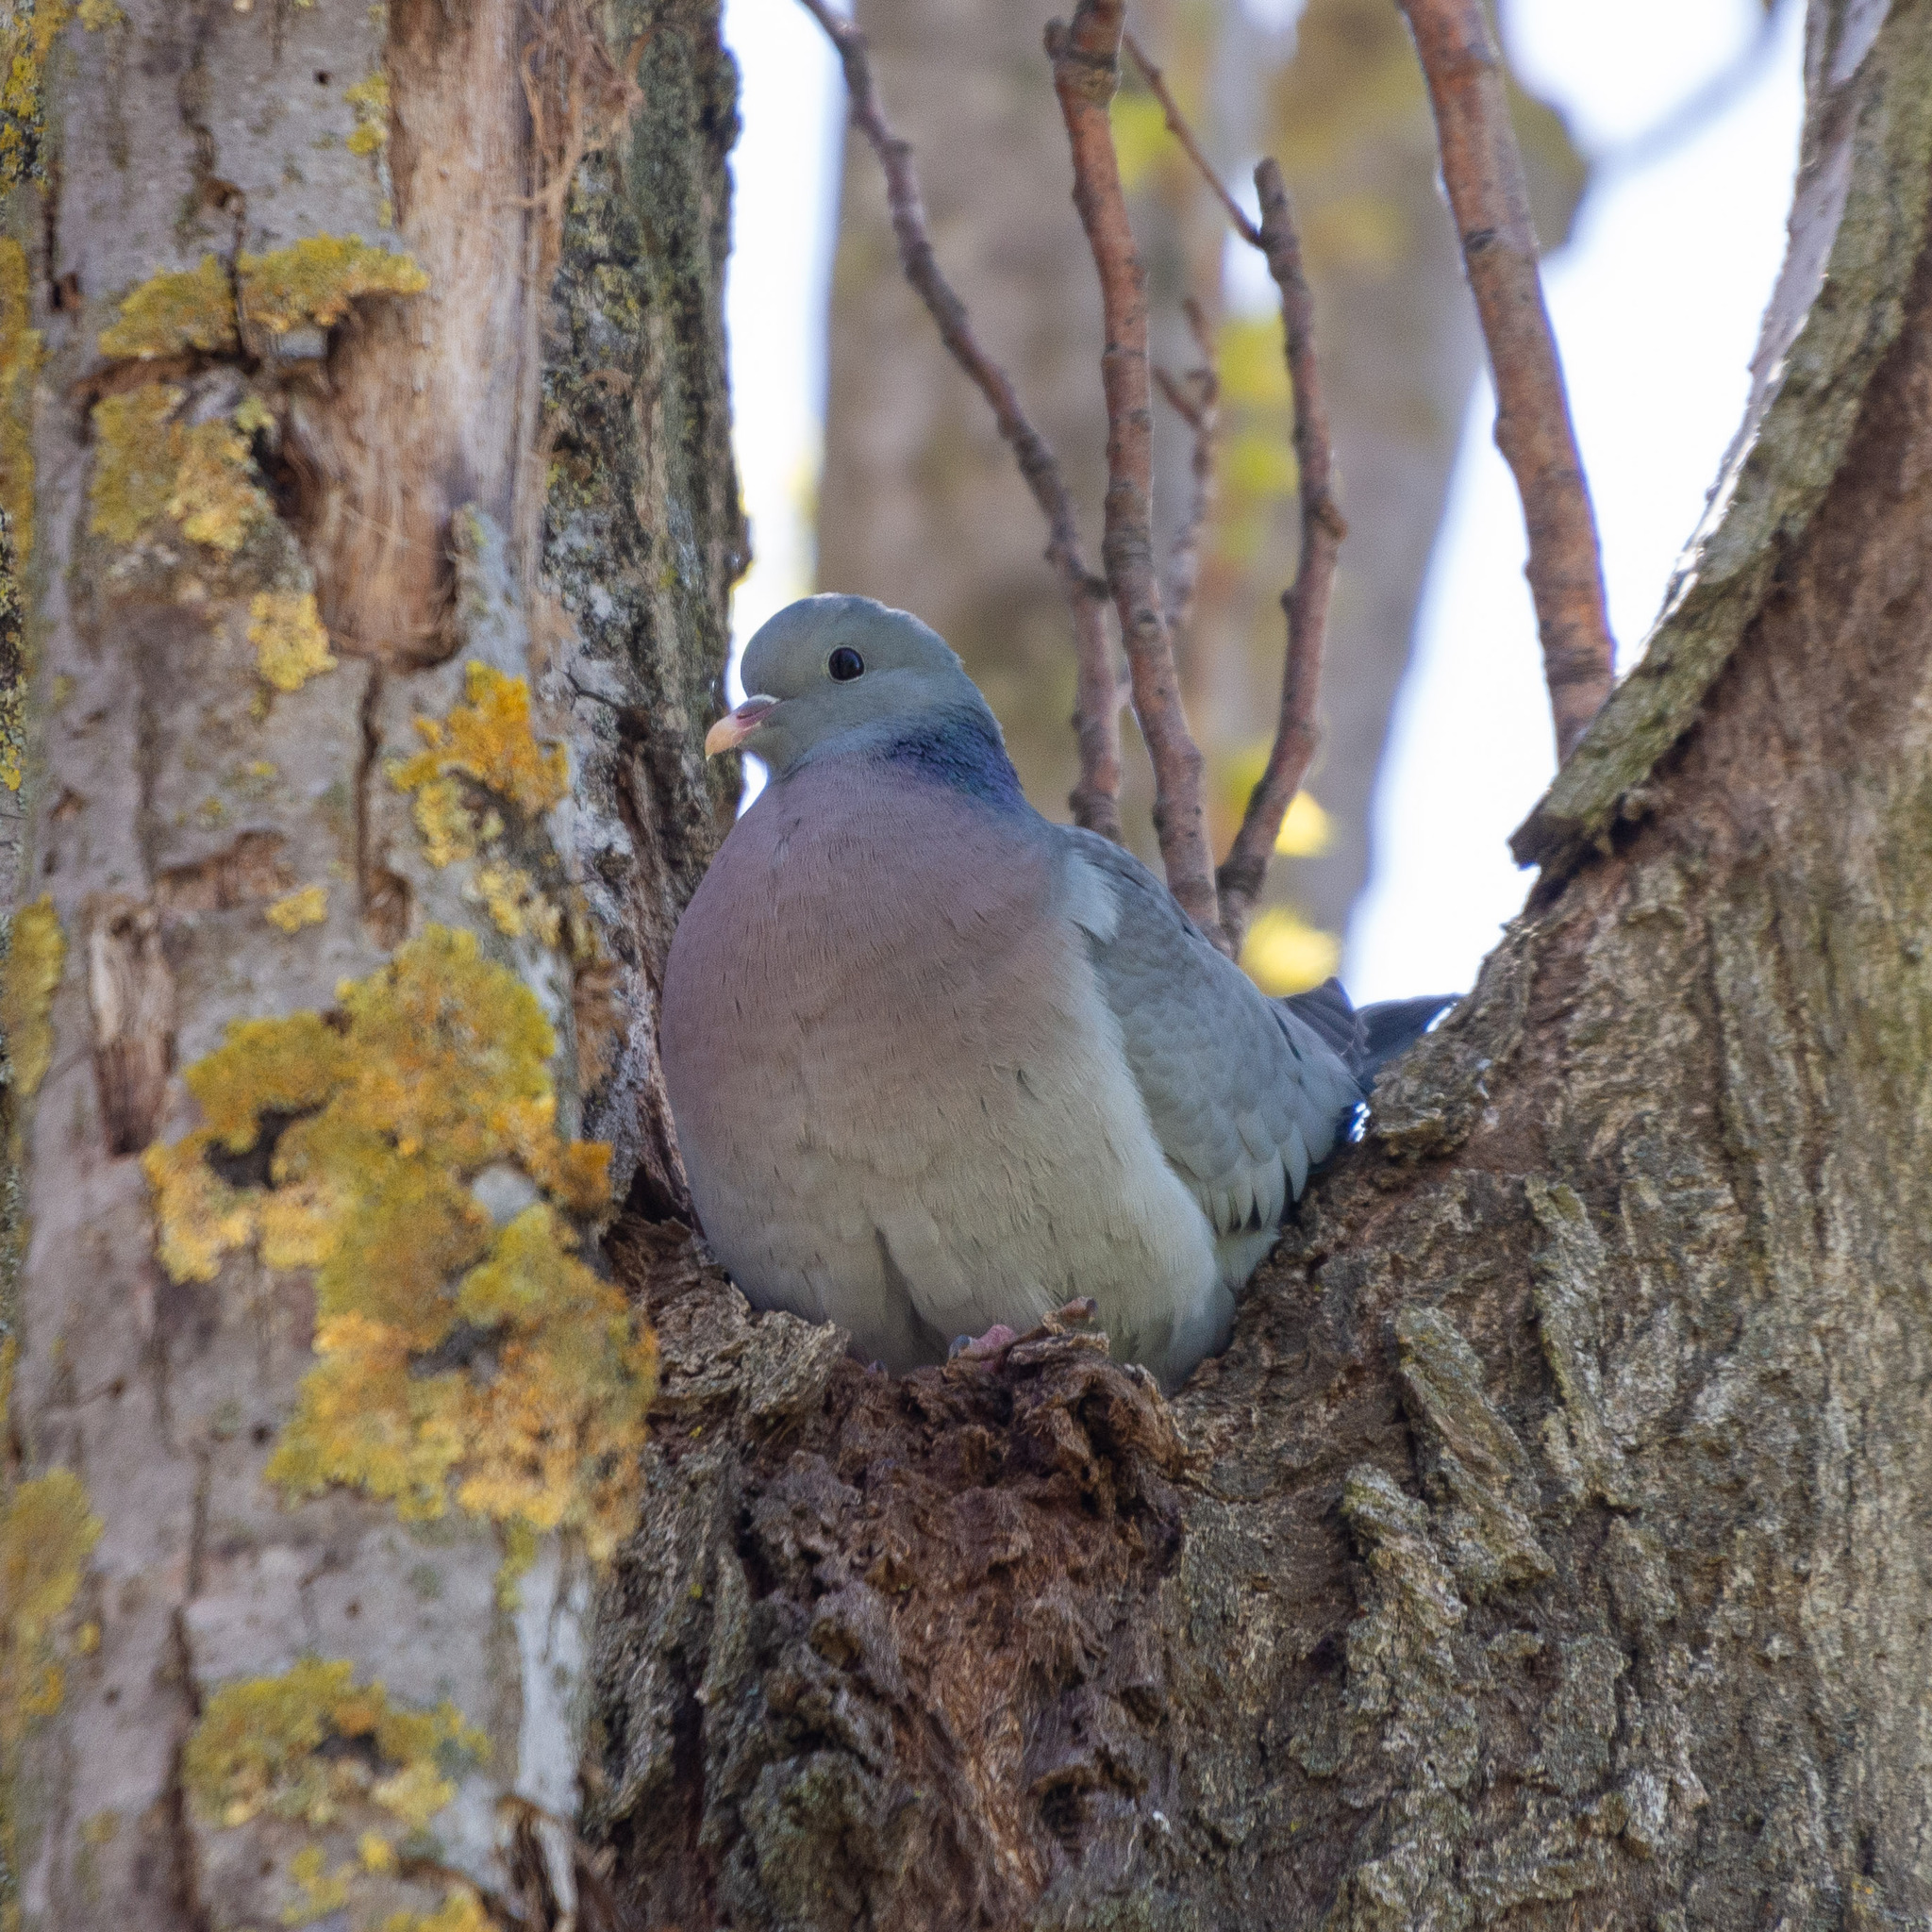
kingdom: Animalia
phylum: Chordata
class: Aves
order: Columbiformes
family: Columbidae
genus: Columba
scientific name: Columba oenas
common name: Stock dove
